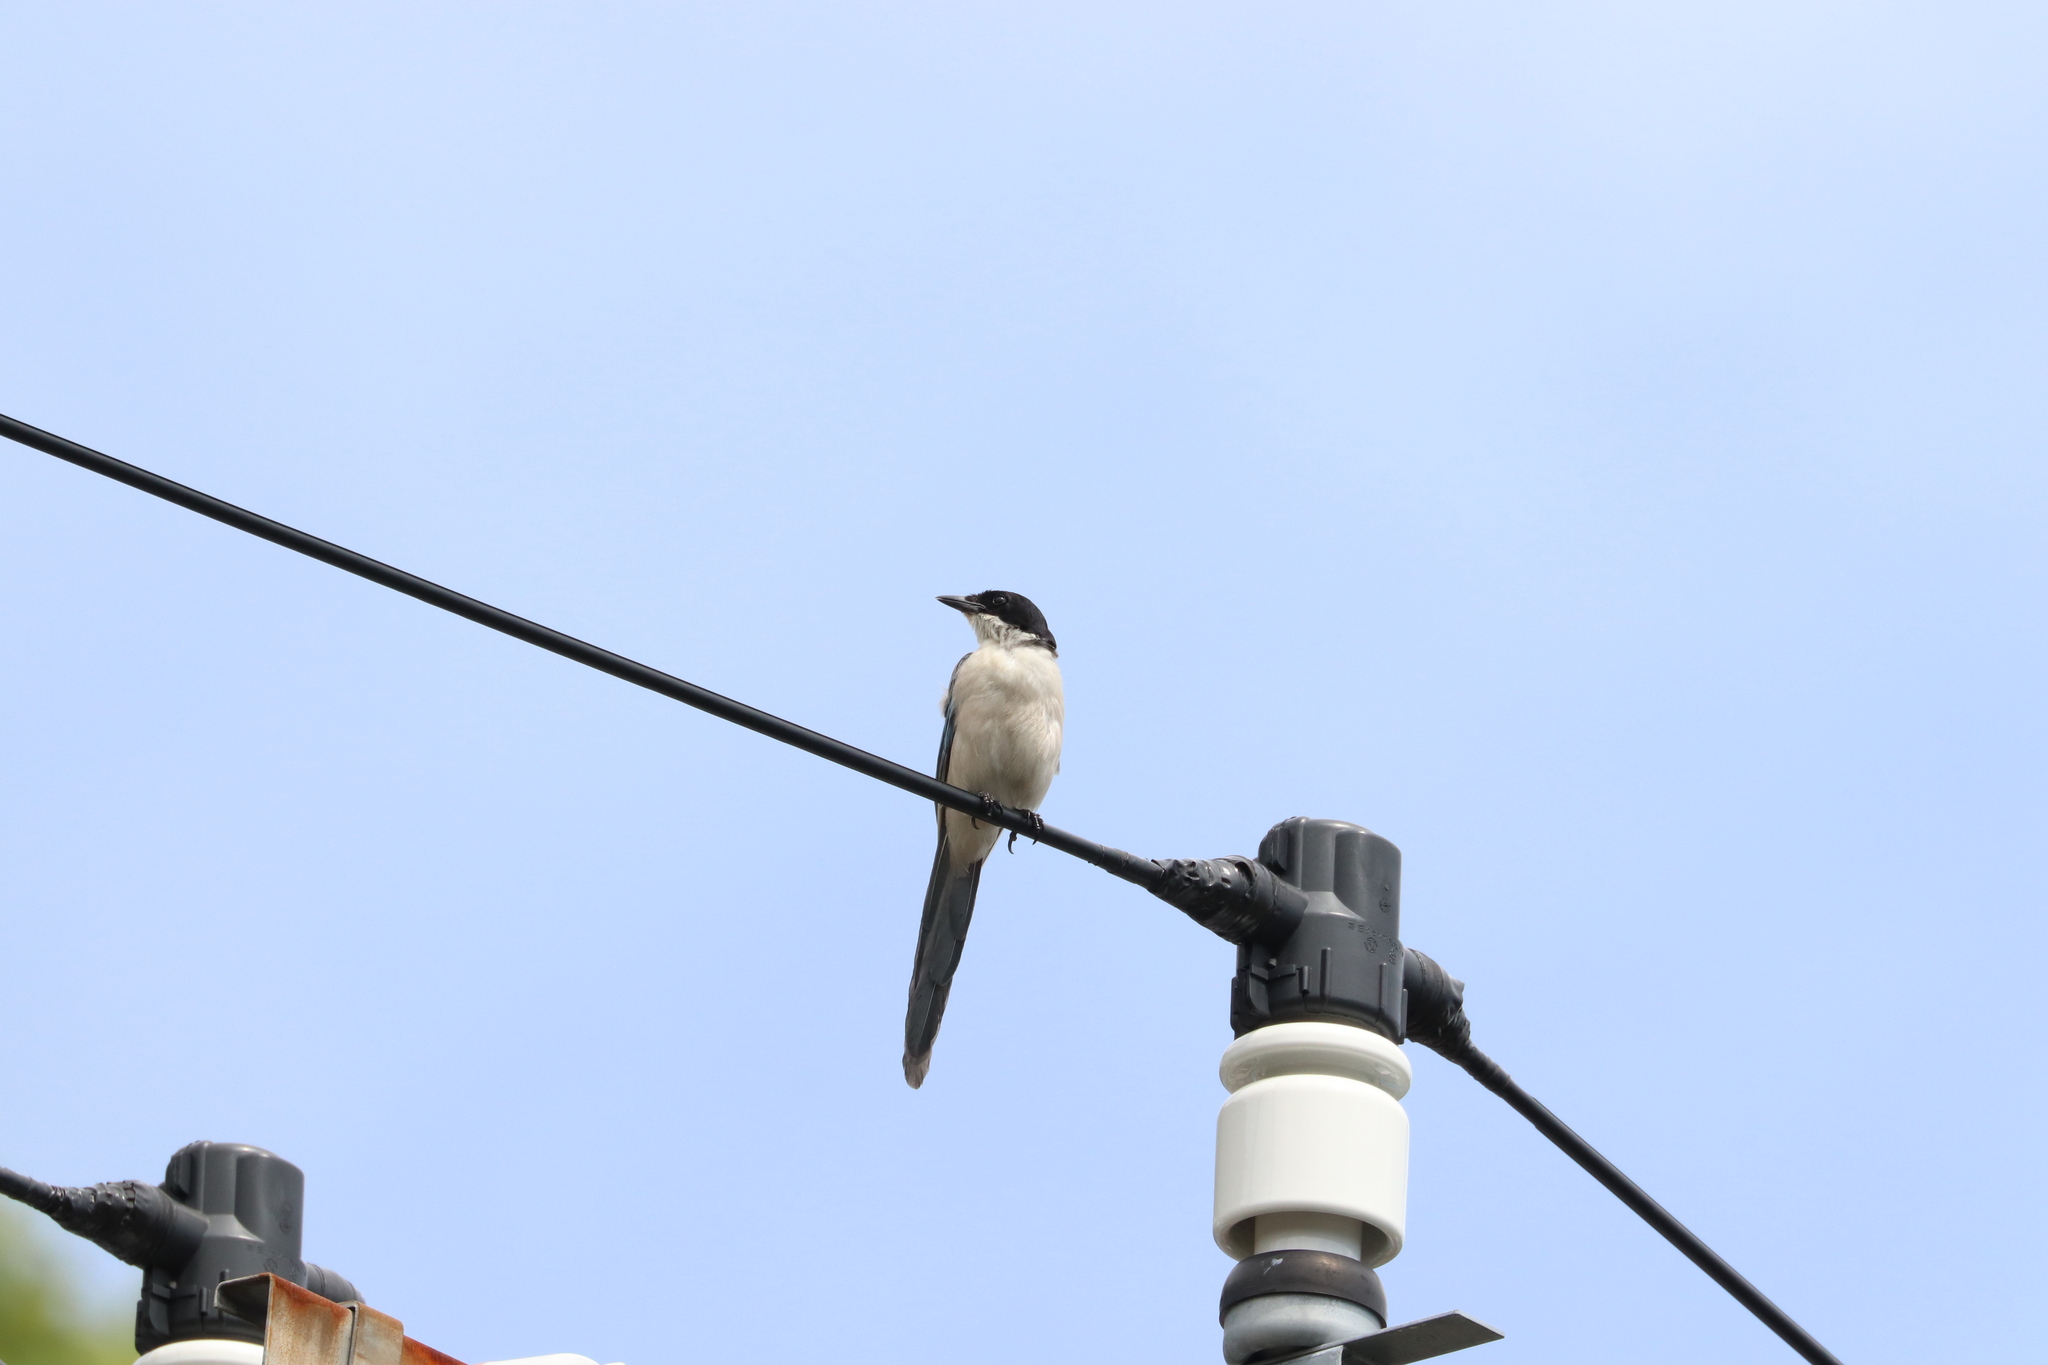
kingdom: Animalia
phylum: Chordata
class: Aves
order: Passeriformes
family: Corvidae
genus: Cyanopica
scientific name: Cyanopica cyanus
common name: Azure-winged magpie
